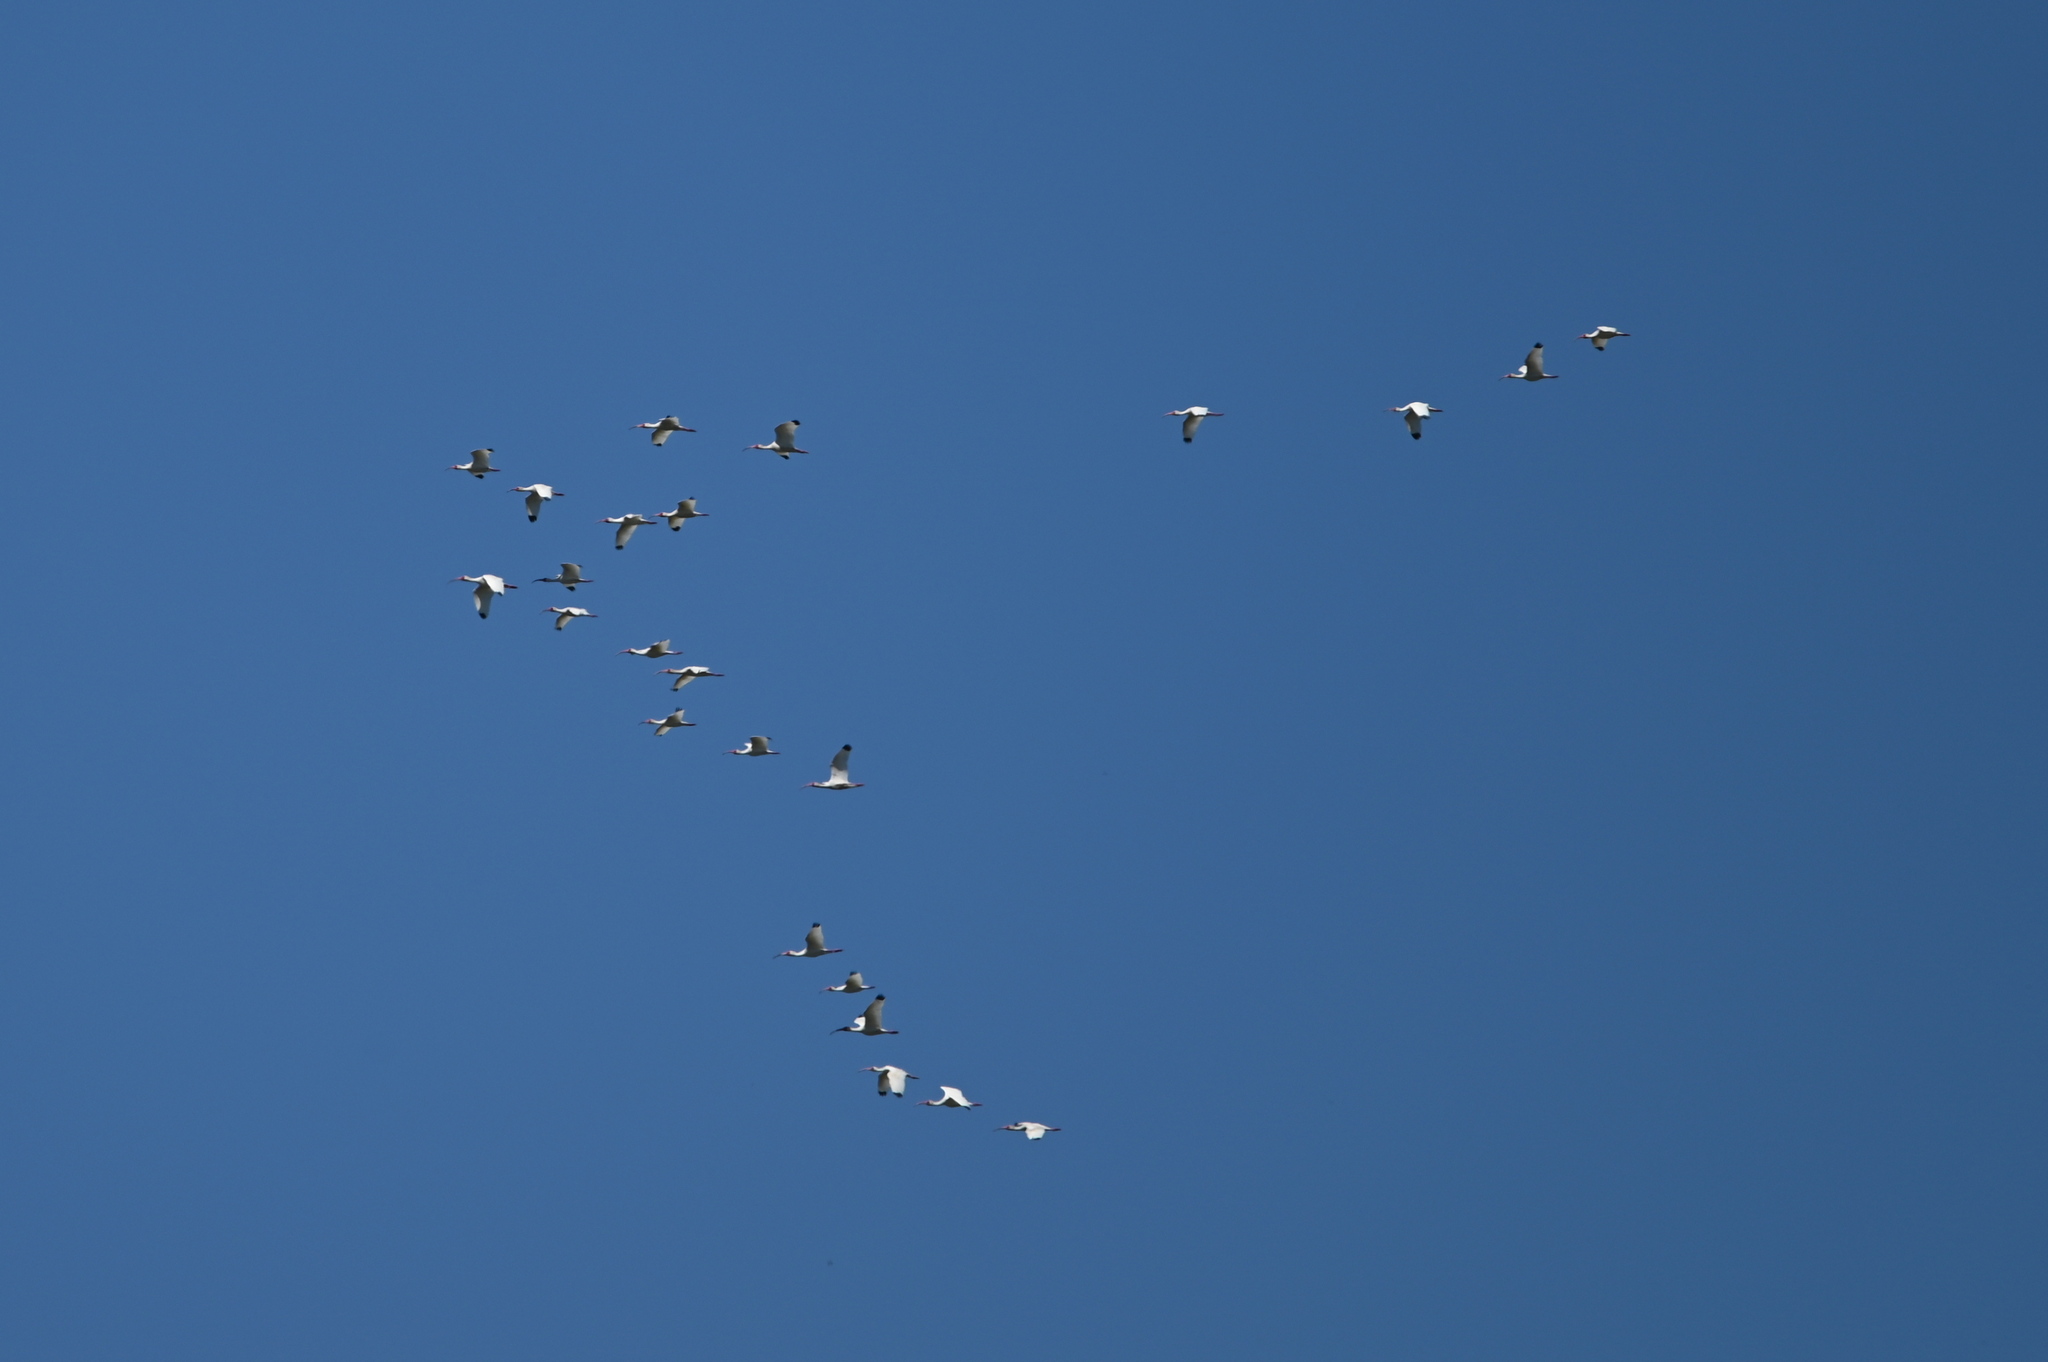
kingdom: Animalia
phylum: Chordata
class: Aves
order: Pelecaniformes
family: Threskiornithidae
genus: Eudocimus
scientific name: Eudocimus albus
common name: White ibis
